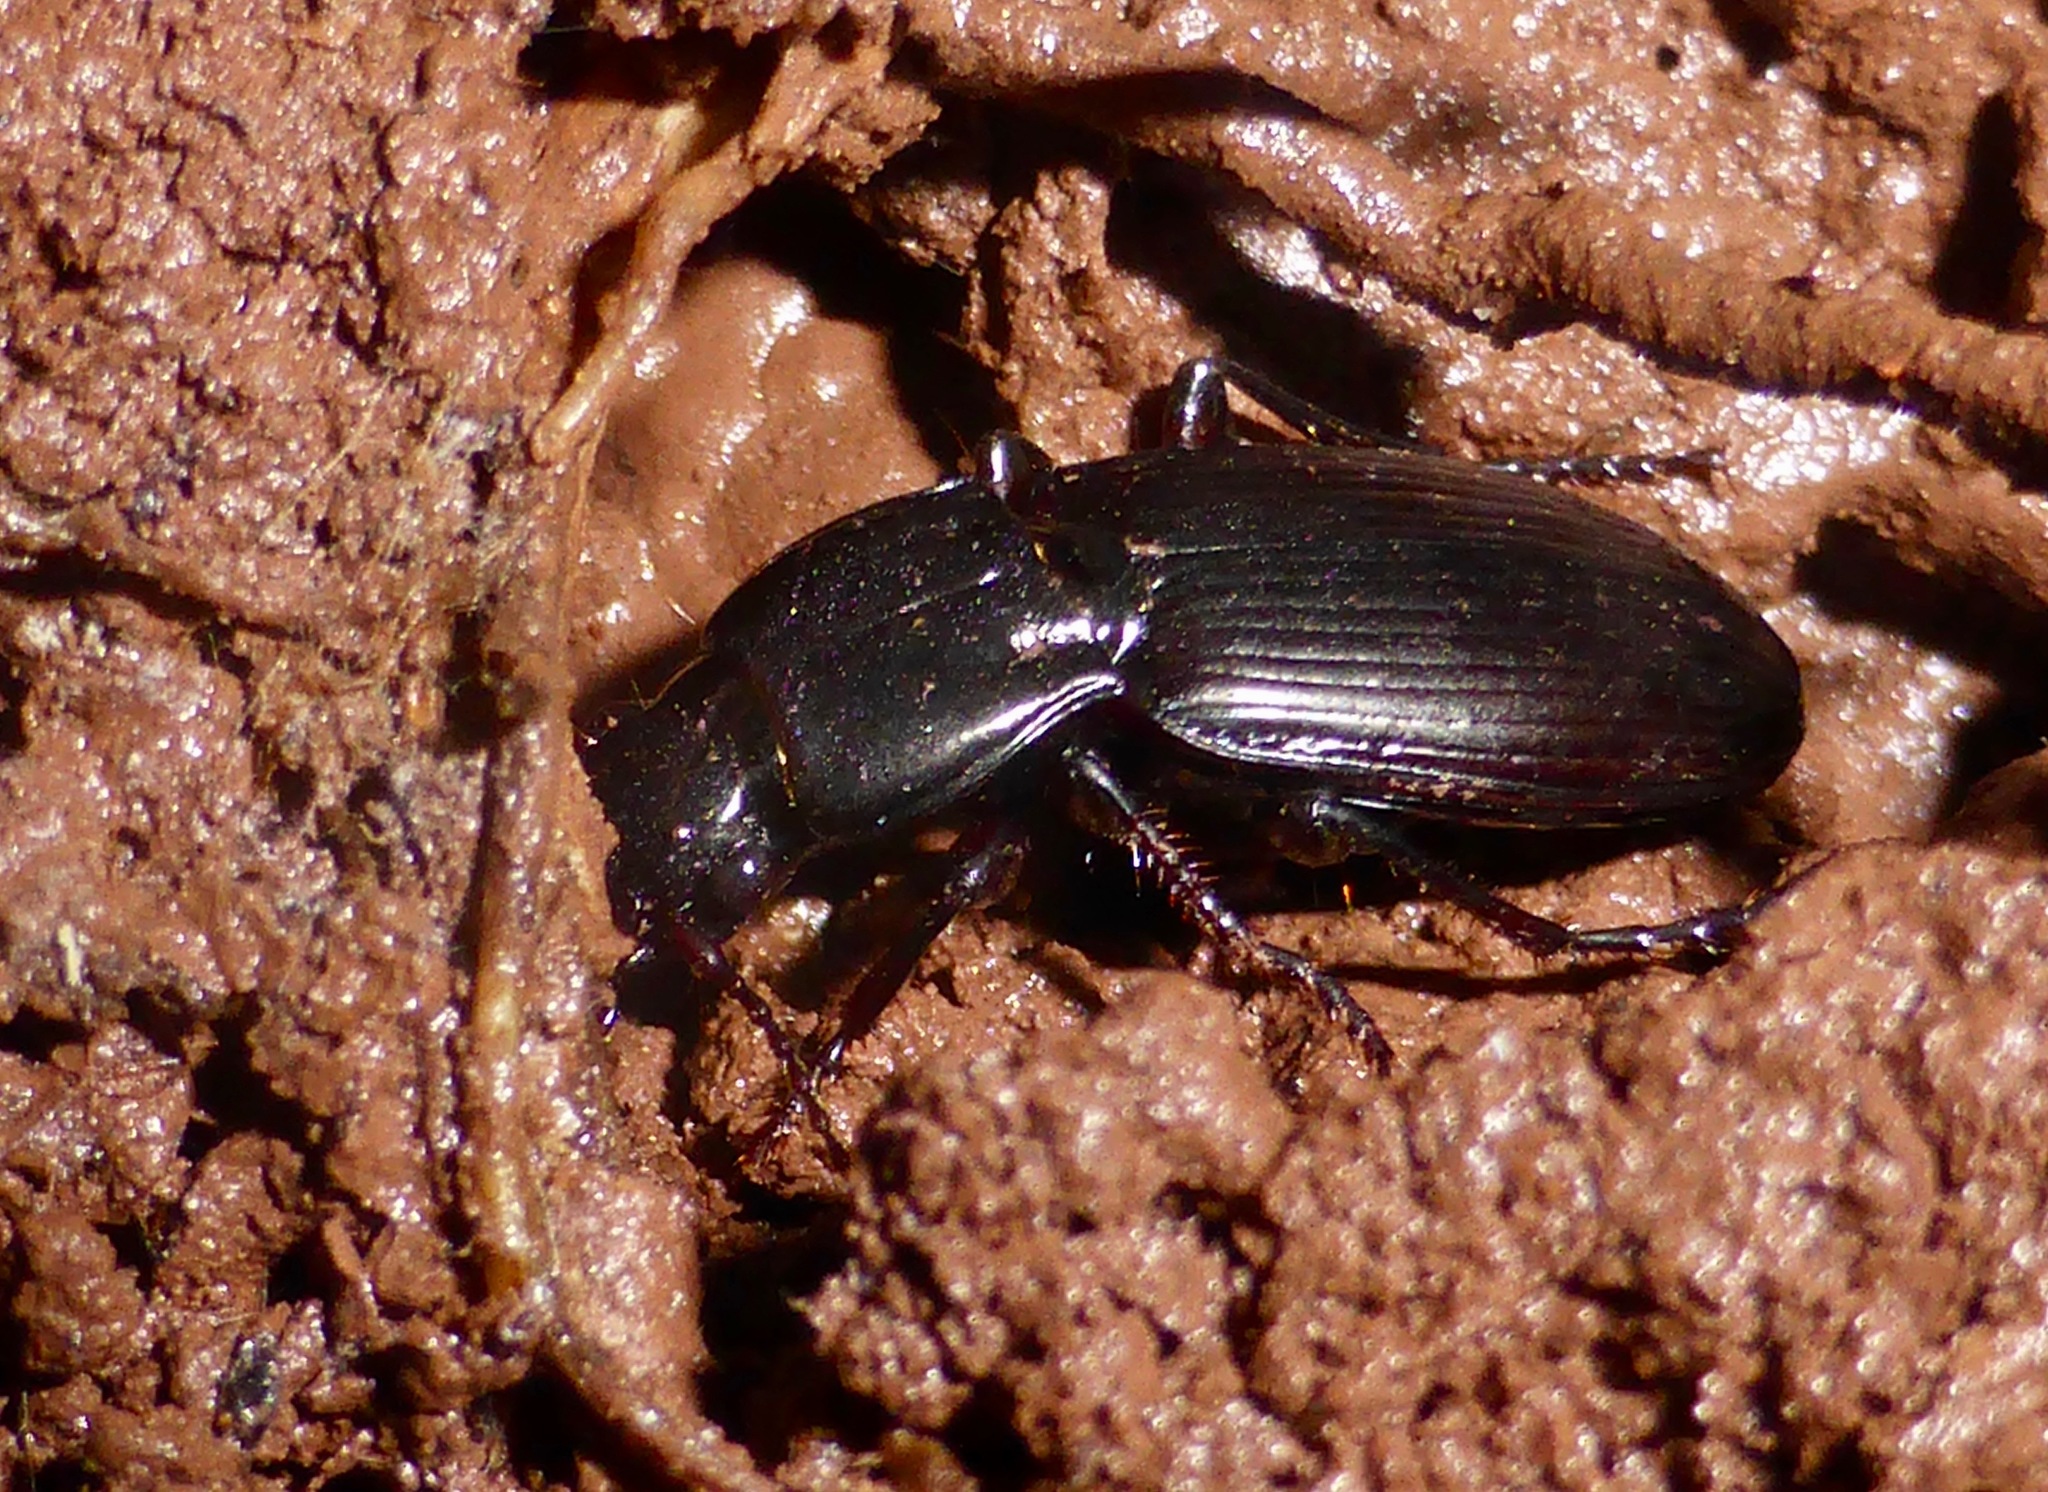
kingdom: Animalia
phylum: Arthropoda
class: Insecta
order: Coleoptera
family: Carabidae
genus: Holcaspis
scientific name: Holcaspis suteri
